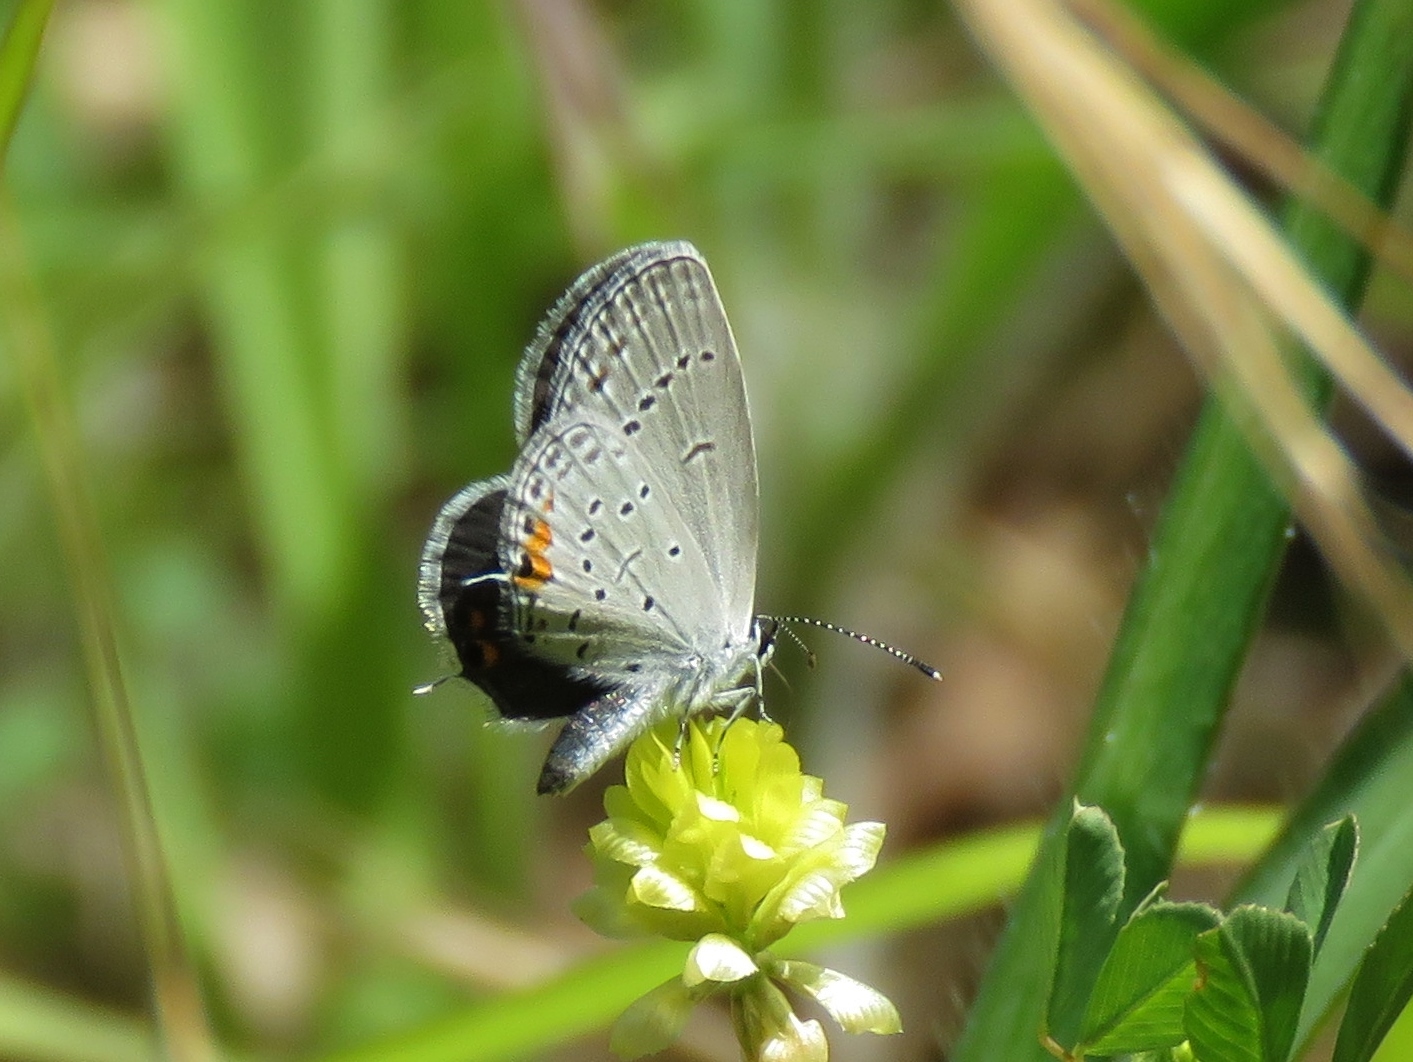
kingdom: Animalia
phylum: Arthropoda
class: Insecta
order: Lepidoptera
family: Lycaenidae
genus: Elkalyce
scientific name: Elkalyce comyntas
